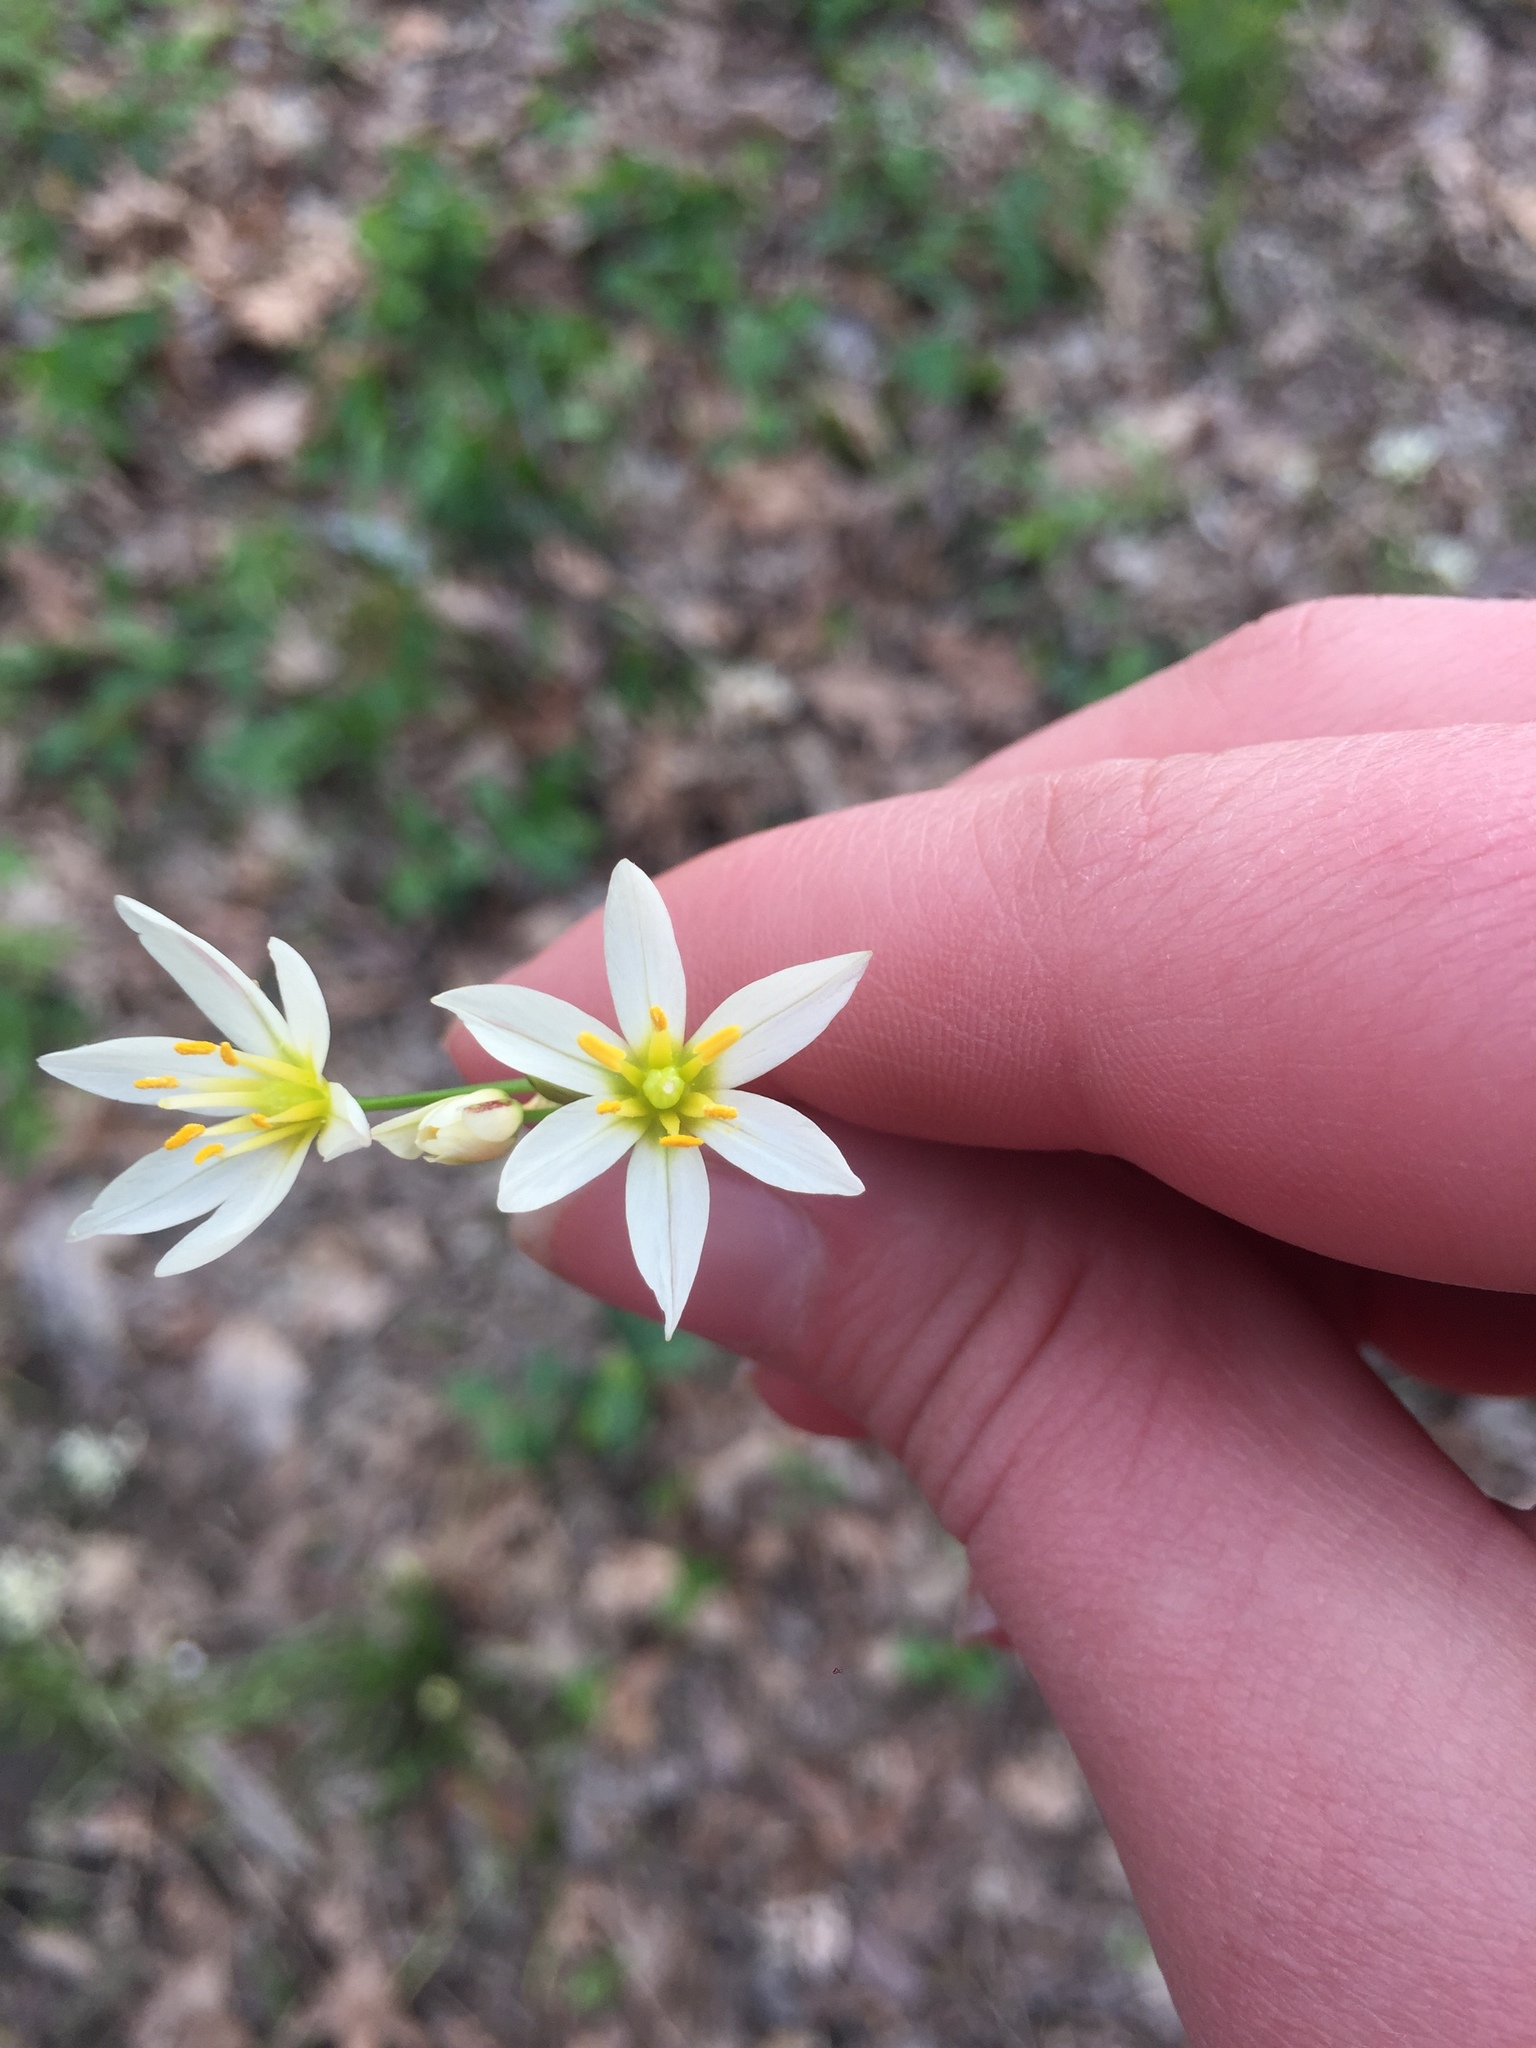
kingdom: Plantae
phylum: Tracheophyta
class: Liliopsida
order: Asparagales
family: Amaryllidaceae
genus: Nothoscordum
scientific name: Nothoscordum bivalve
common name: Crow-poison
